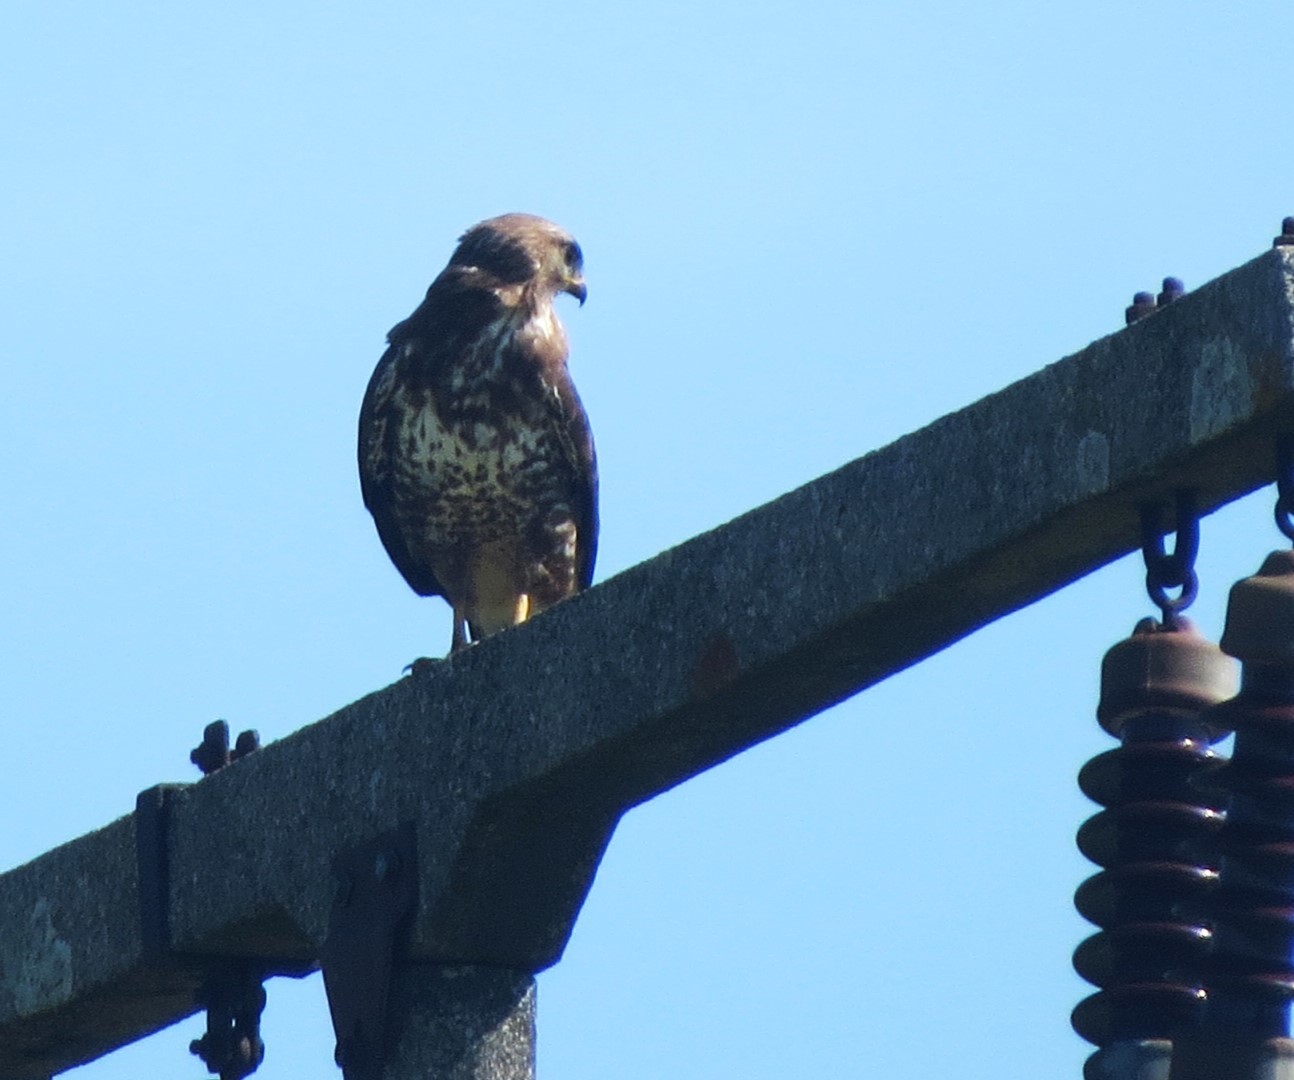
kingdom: Animalia
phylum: Chordata
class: Aves
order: Accipitriformes
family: Accipitridae
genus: Buteo
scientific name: Buteo buteo
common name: Common buzzard
